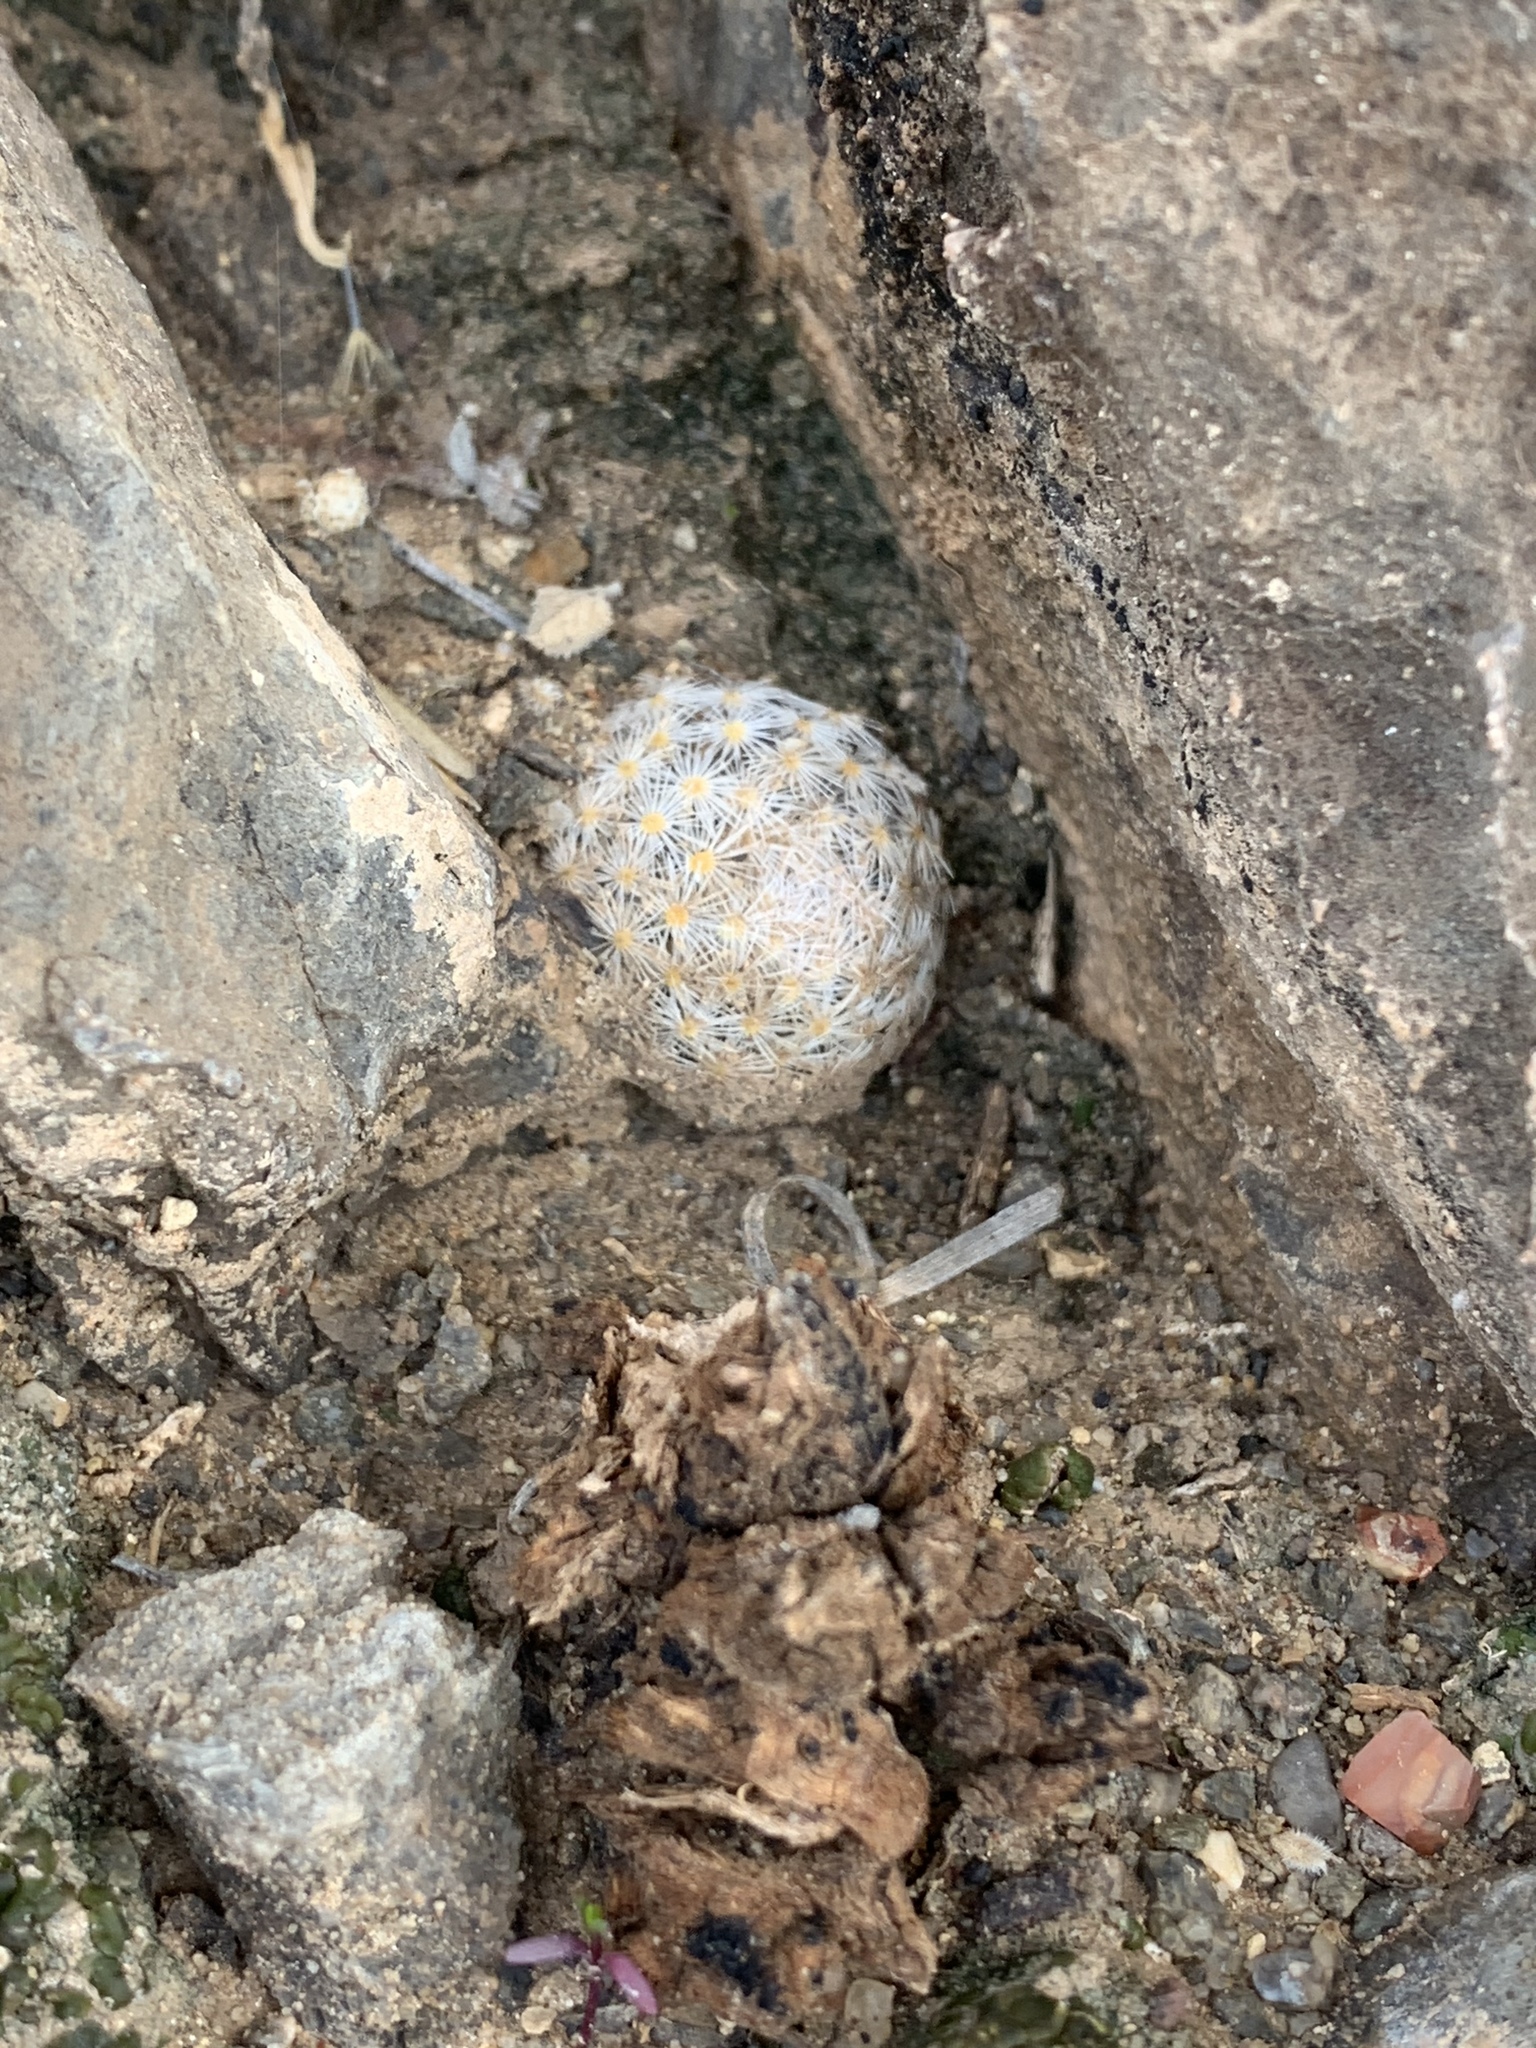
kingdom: Plantae
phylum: Tracheophyta
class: Magnoliopsida
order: Caryophyllales
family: Cactaceae
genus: Mammillaria
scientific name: Mammillaria lasiacantha
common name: Lace-spine nipple cactus
